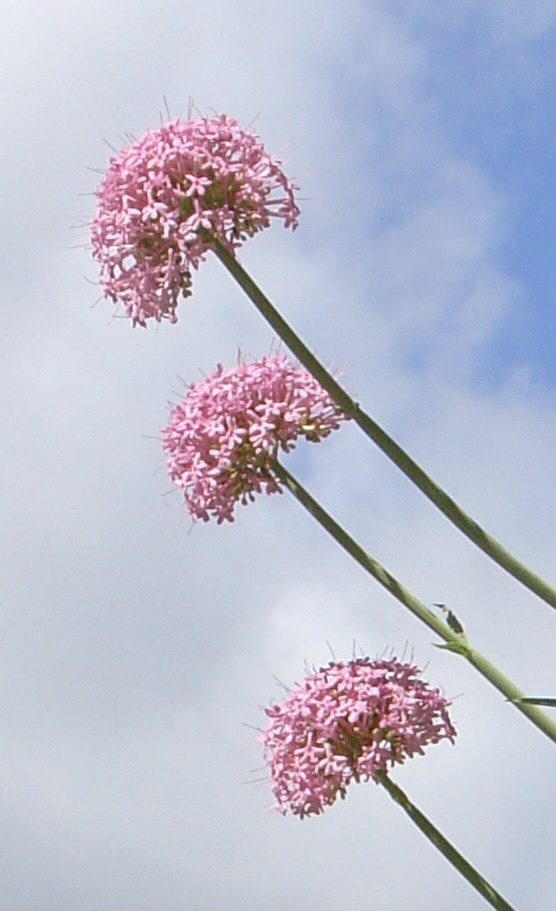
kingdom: Plantae
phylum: Tracheophyta
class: Magnoliopsida
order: Dipsacales
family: Caprifoliaceae
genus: Centranthus
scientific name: Centranthus ruber
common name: Red valerian
